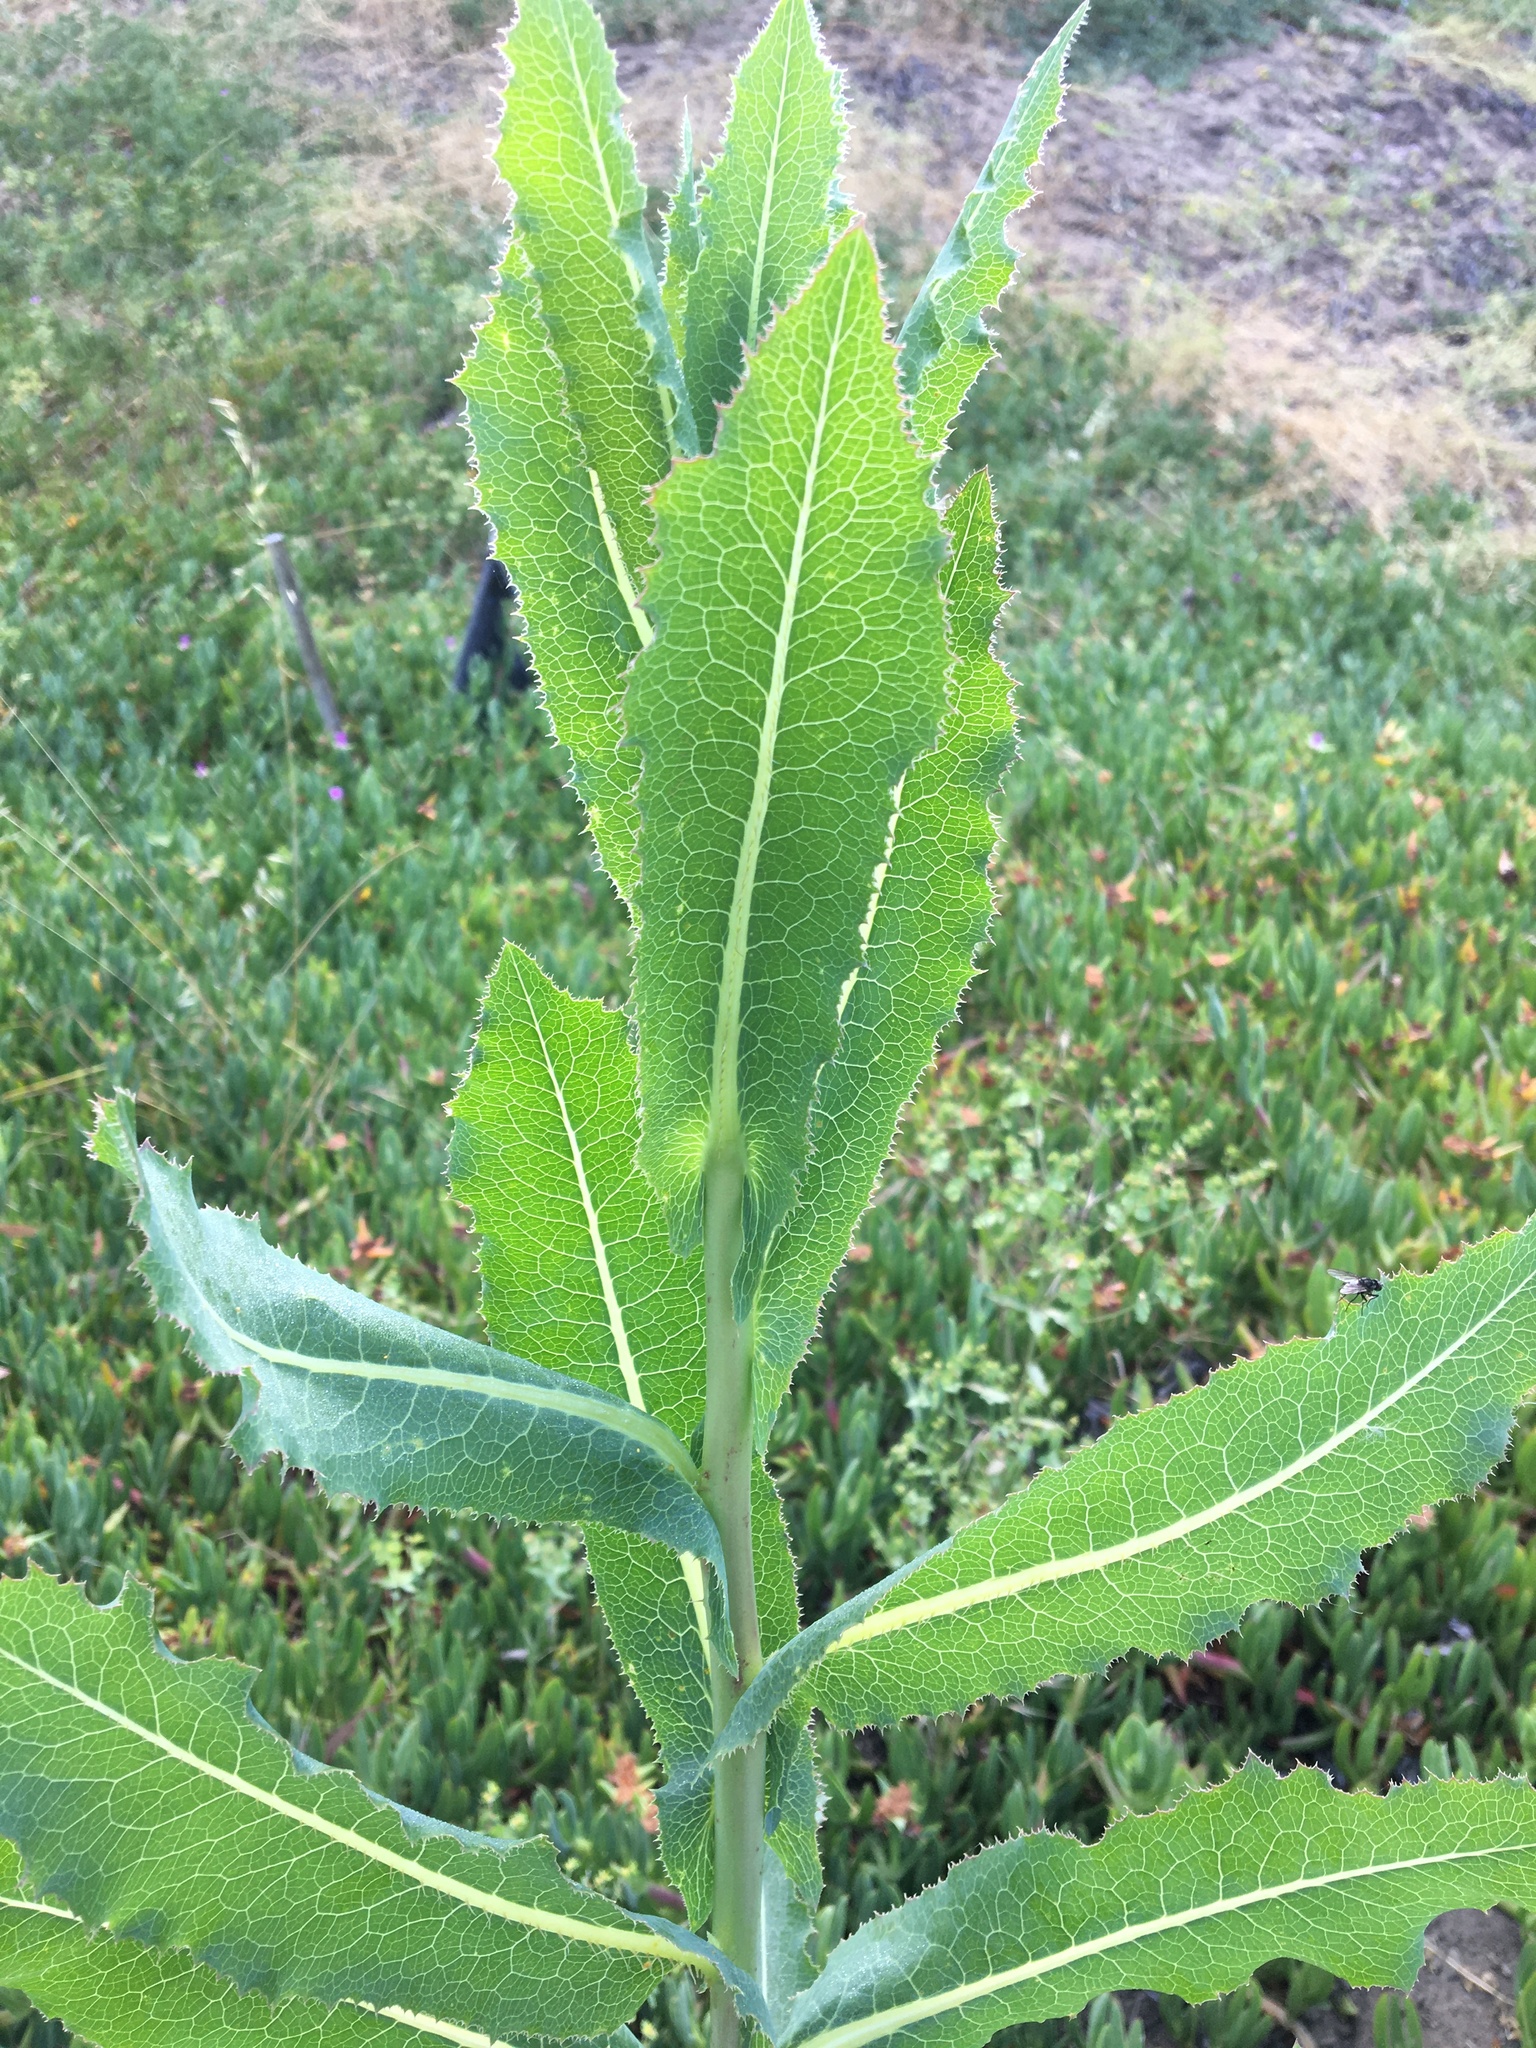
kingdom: Plantae
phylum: Tracheophyta
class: Magnoliopsida
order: Asterales
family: Asteraceae
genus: Lactuca
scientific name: Lactuca serriola
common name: Prickly lettuce
